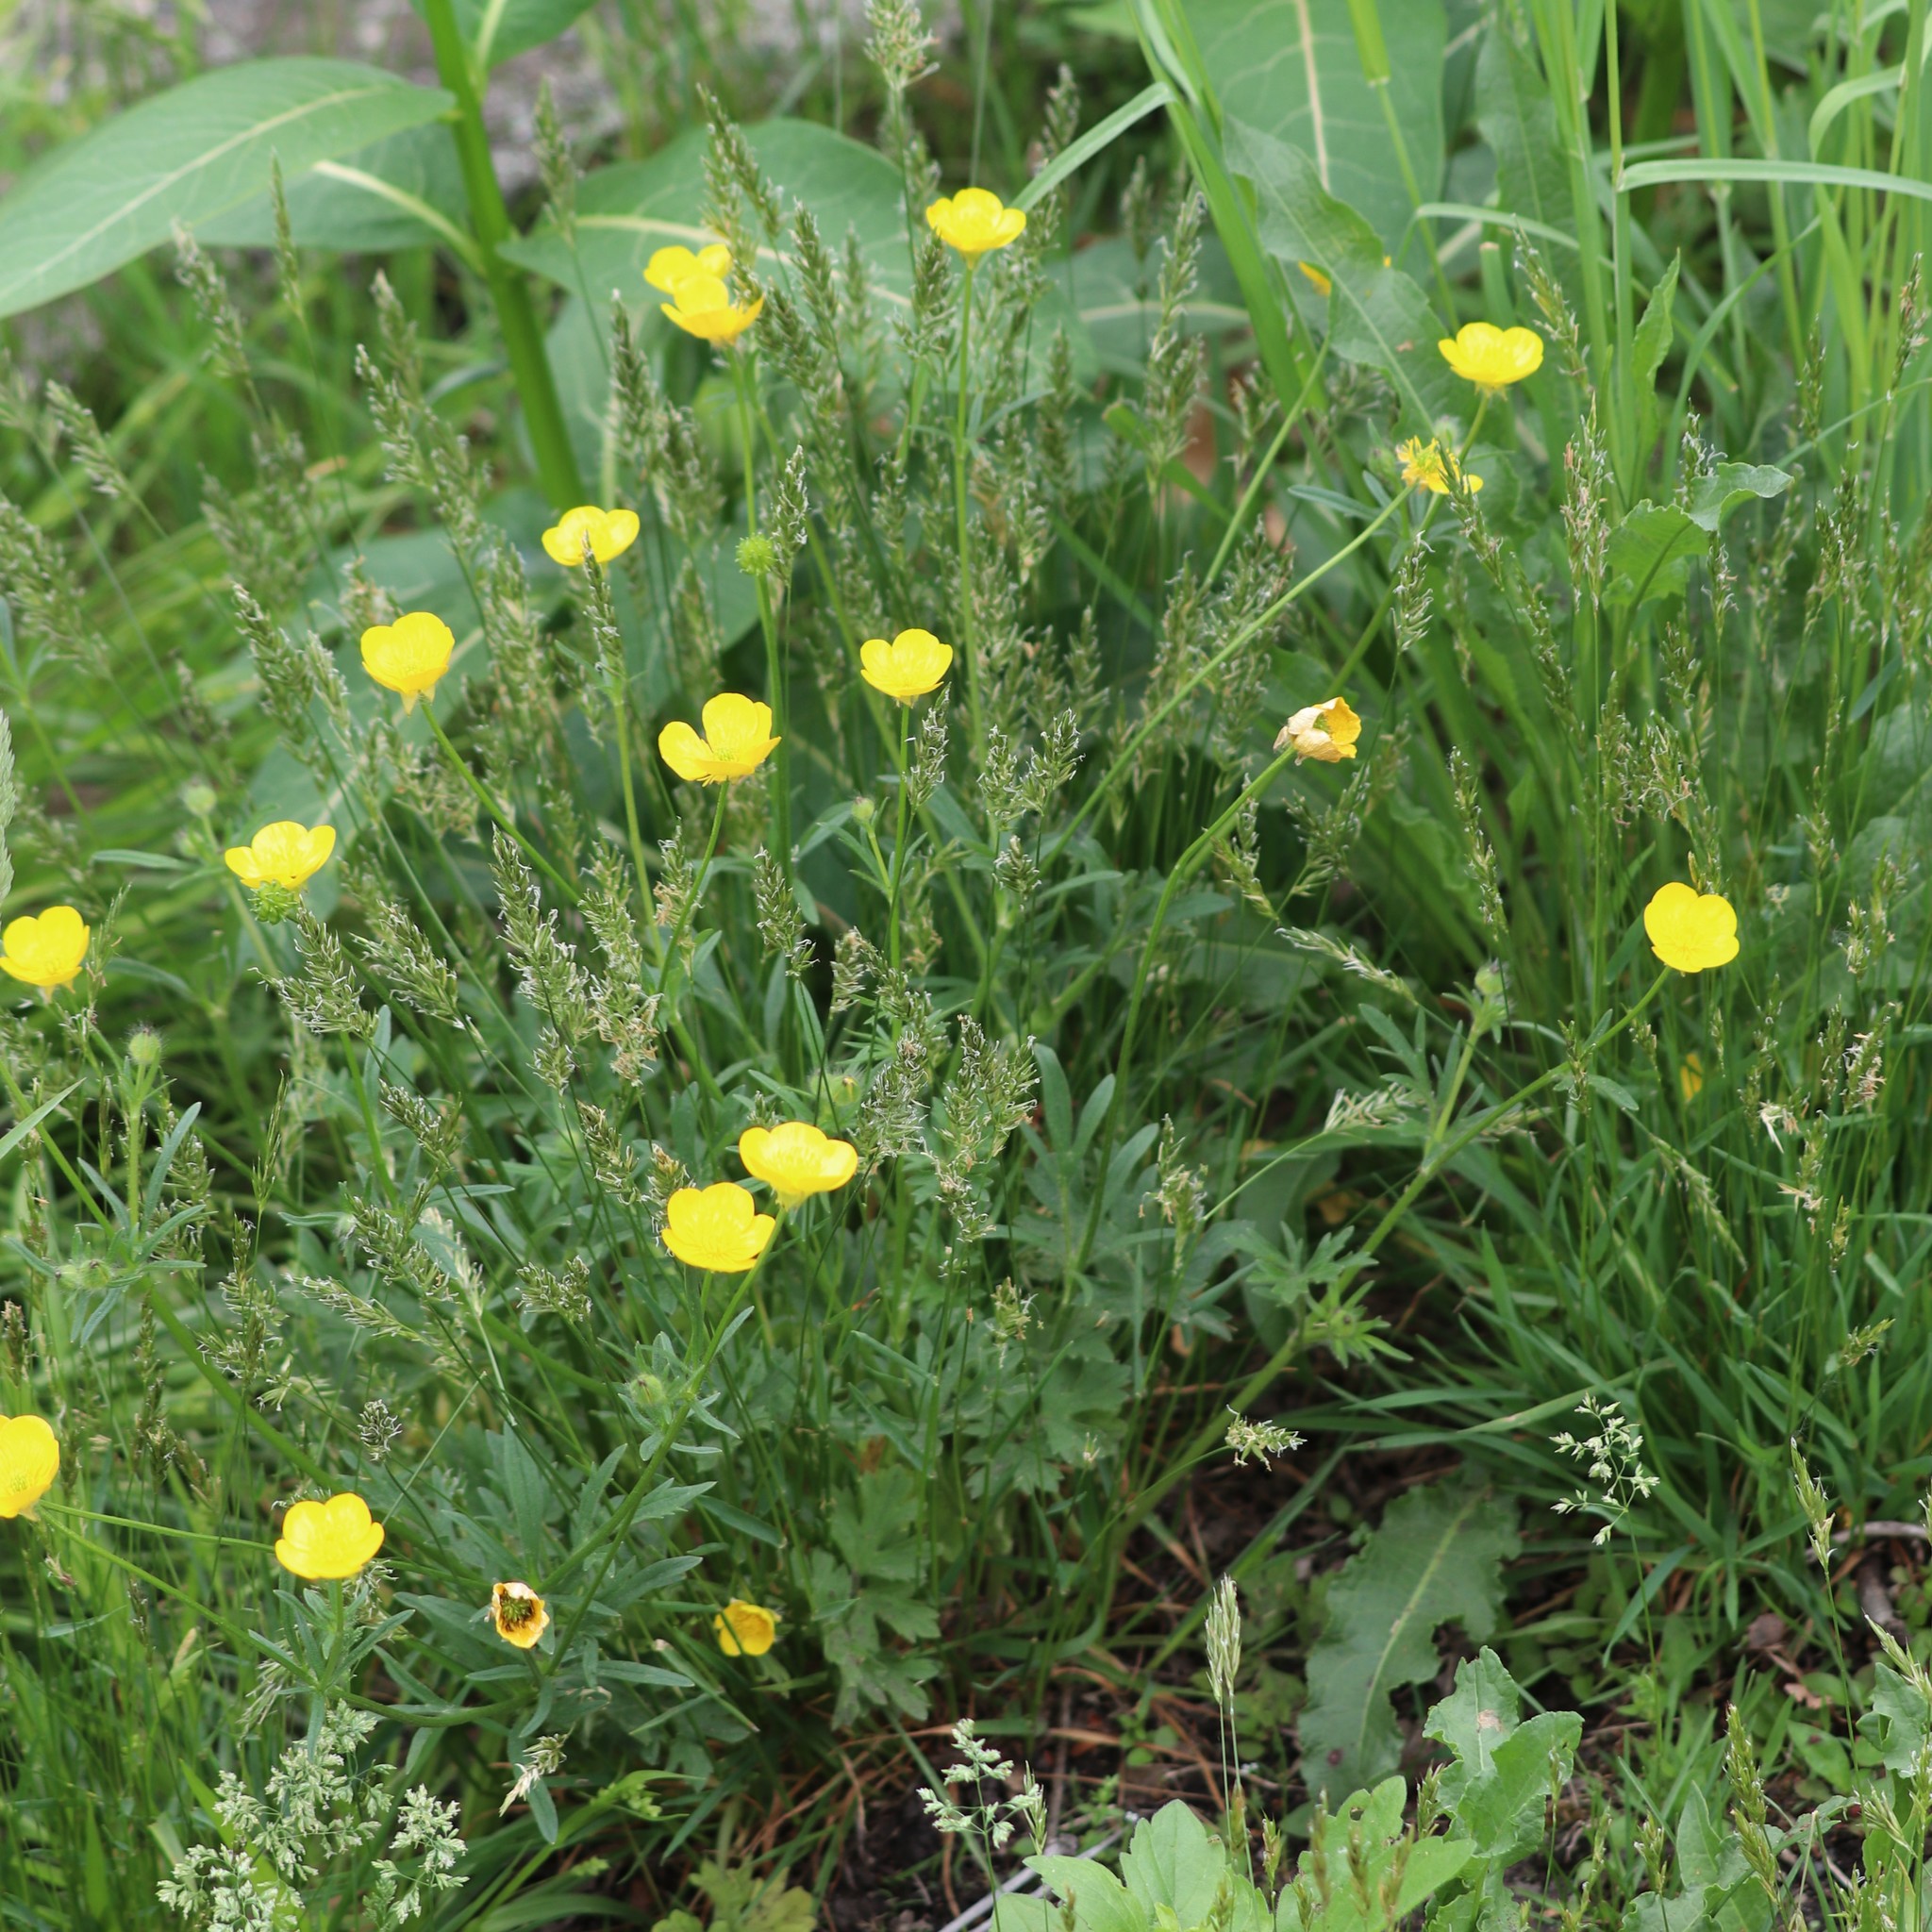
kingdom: Plantae
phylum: Tracheophyta
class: Magnoliopsida
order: Ranunculales
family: Ranunculaceae
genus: Ranunculus
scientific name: Ranunculus bulbosus
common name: Bulbous buttercup
